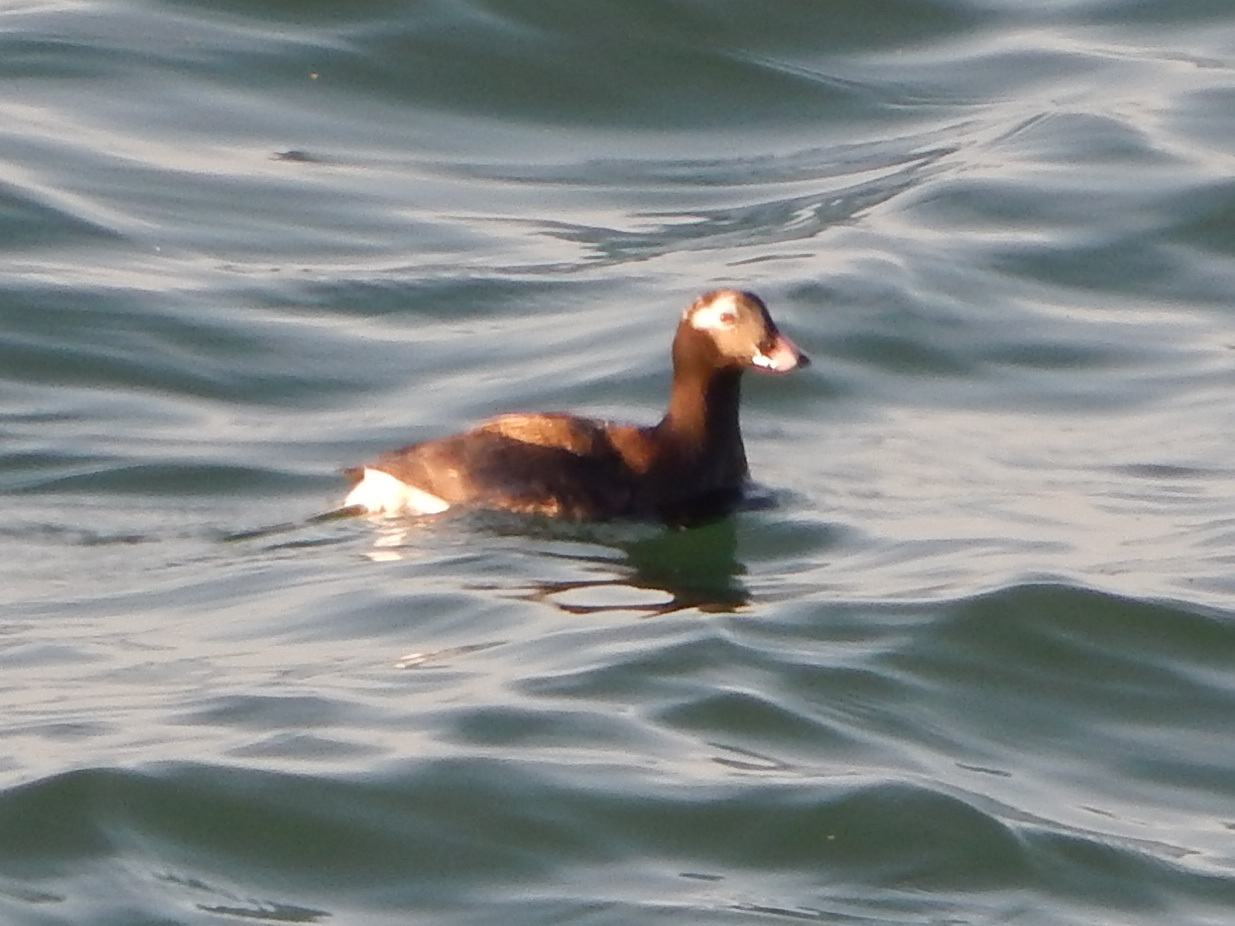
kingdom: Animalia
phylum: Chordata
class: Aves
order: Anseriformes
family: Anatidae
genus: Clangula
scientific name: Clangula hyemalis
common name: Long-tailed duck
